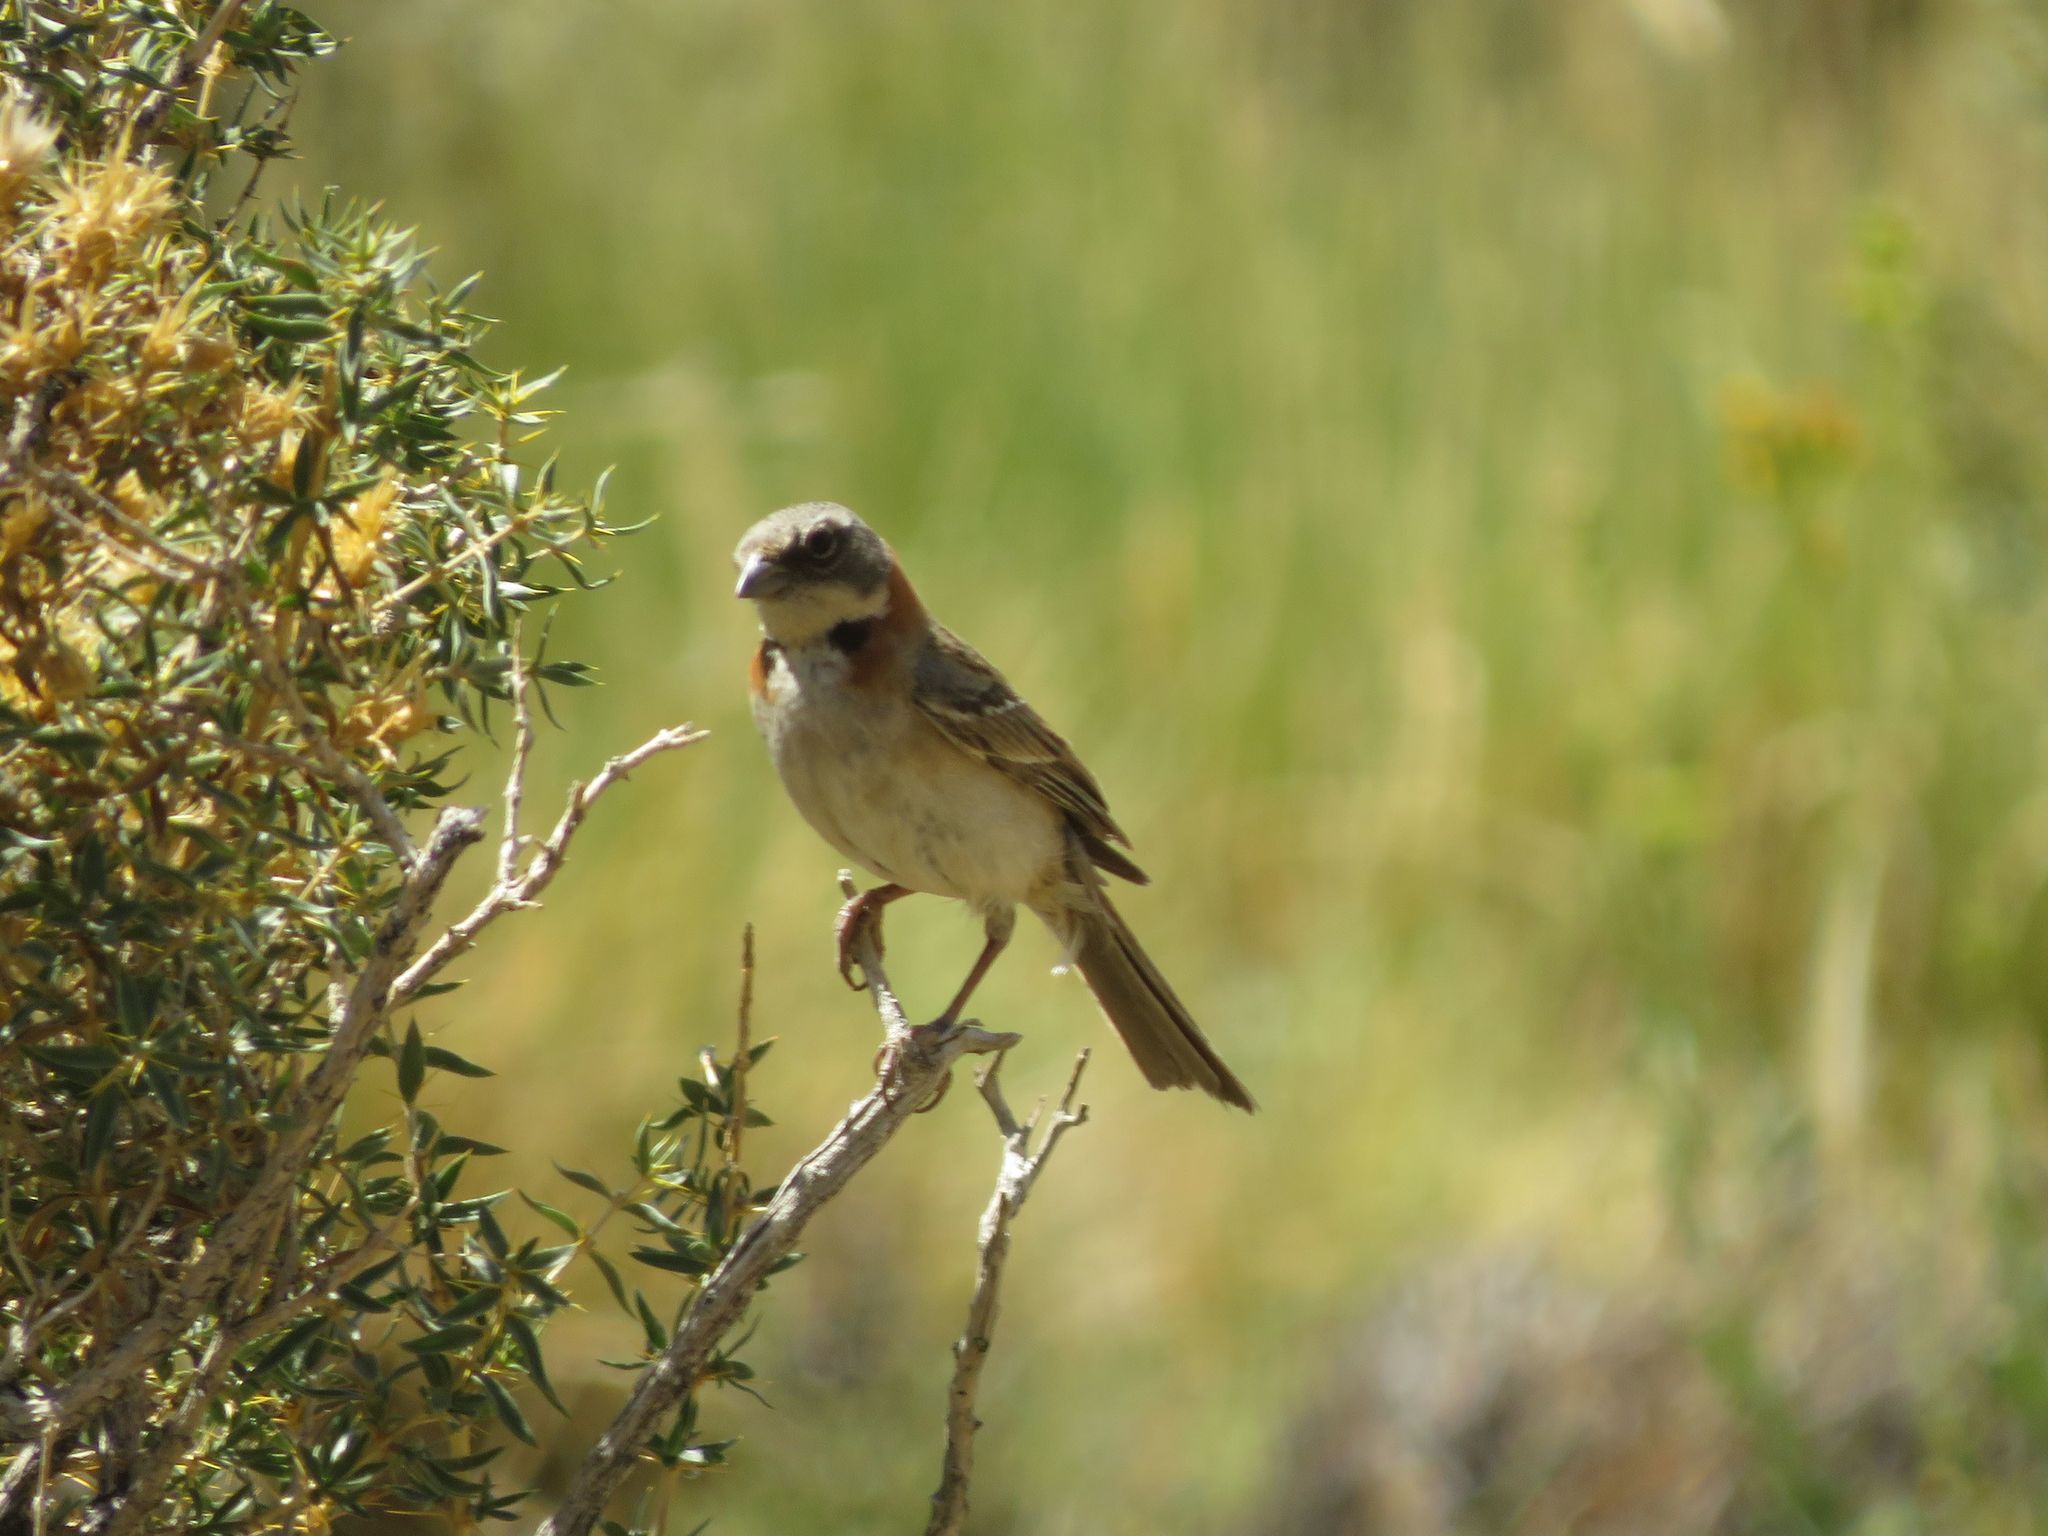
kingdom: Animalia
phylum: Chordata
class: Aves
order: Passeriformes
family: Passerellidae
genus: Zonotrichia
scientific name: Zonotrichia capensis
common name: Rufous-collared sparrow
